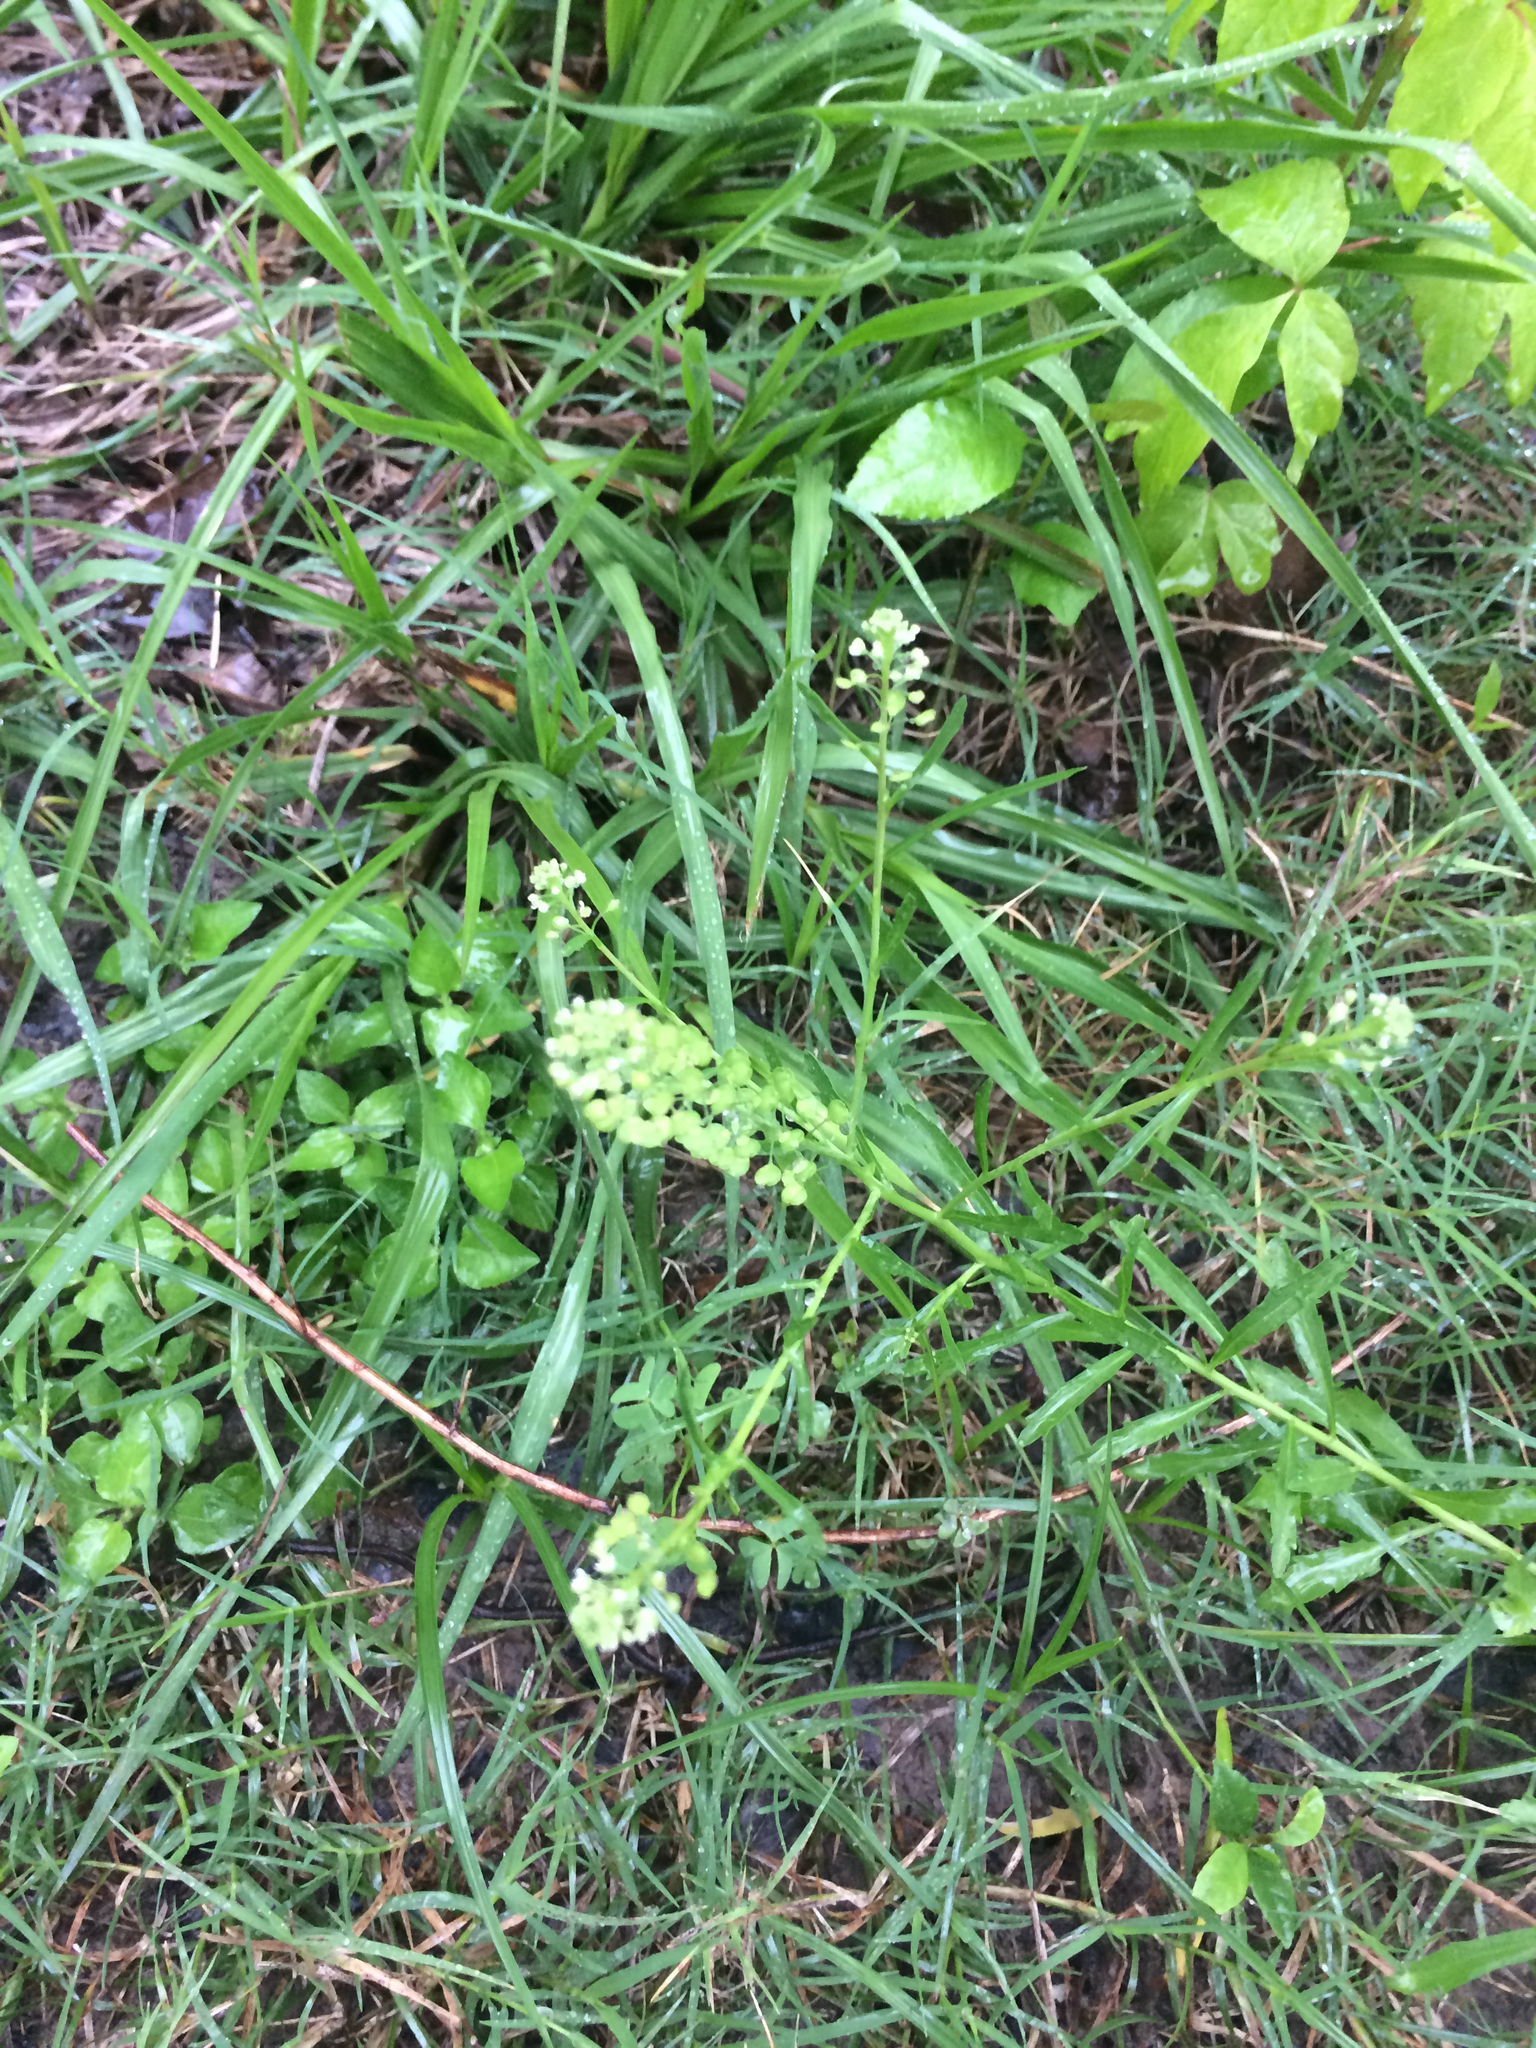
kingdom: Plantae
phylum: Tracheophyta
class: Magnoliopsida
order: Brassicales
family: Brassicaceae
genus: Lepidium
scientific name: Lepidium virginicum
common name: Least pepperwort
